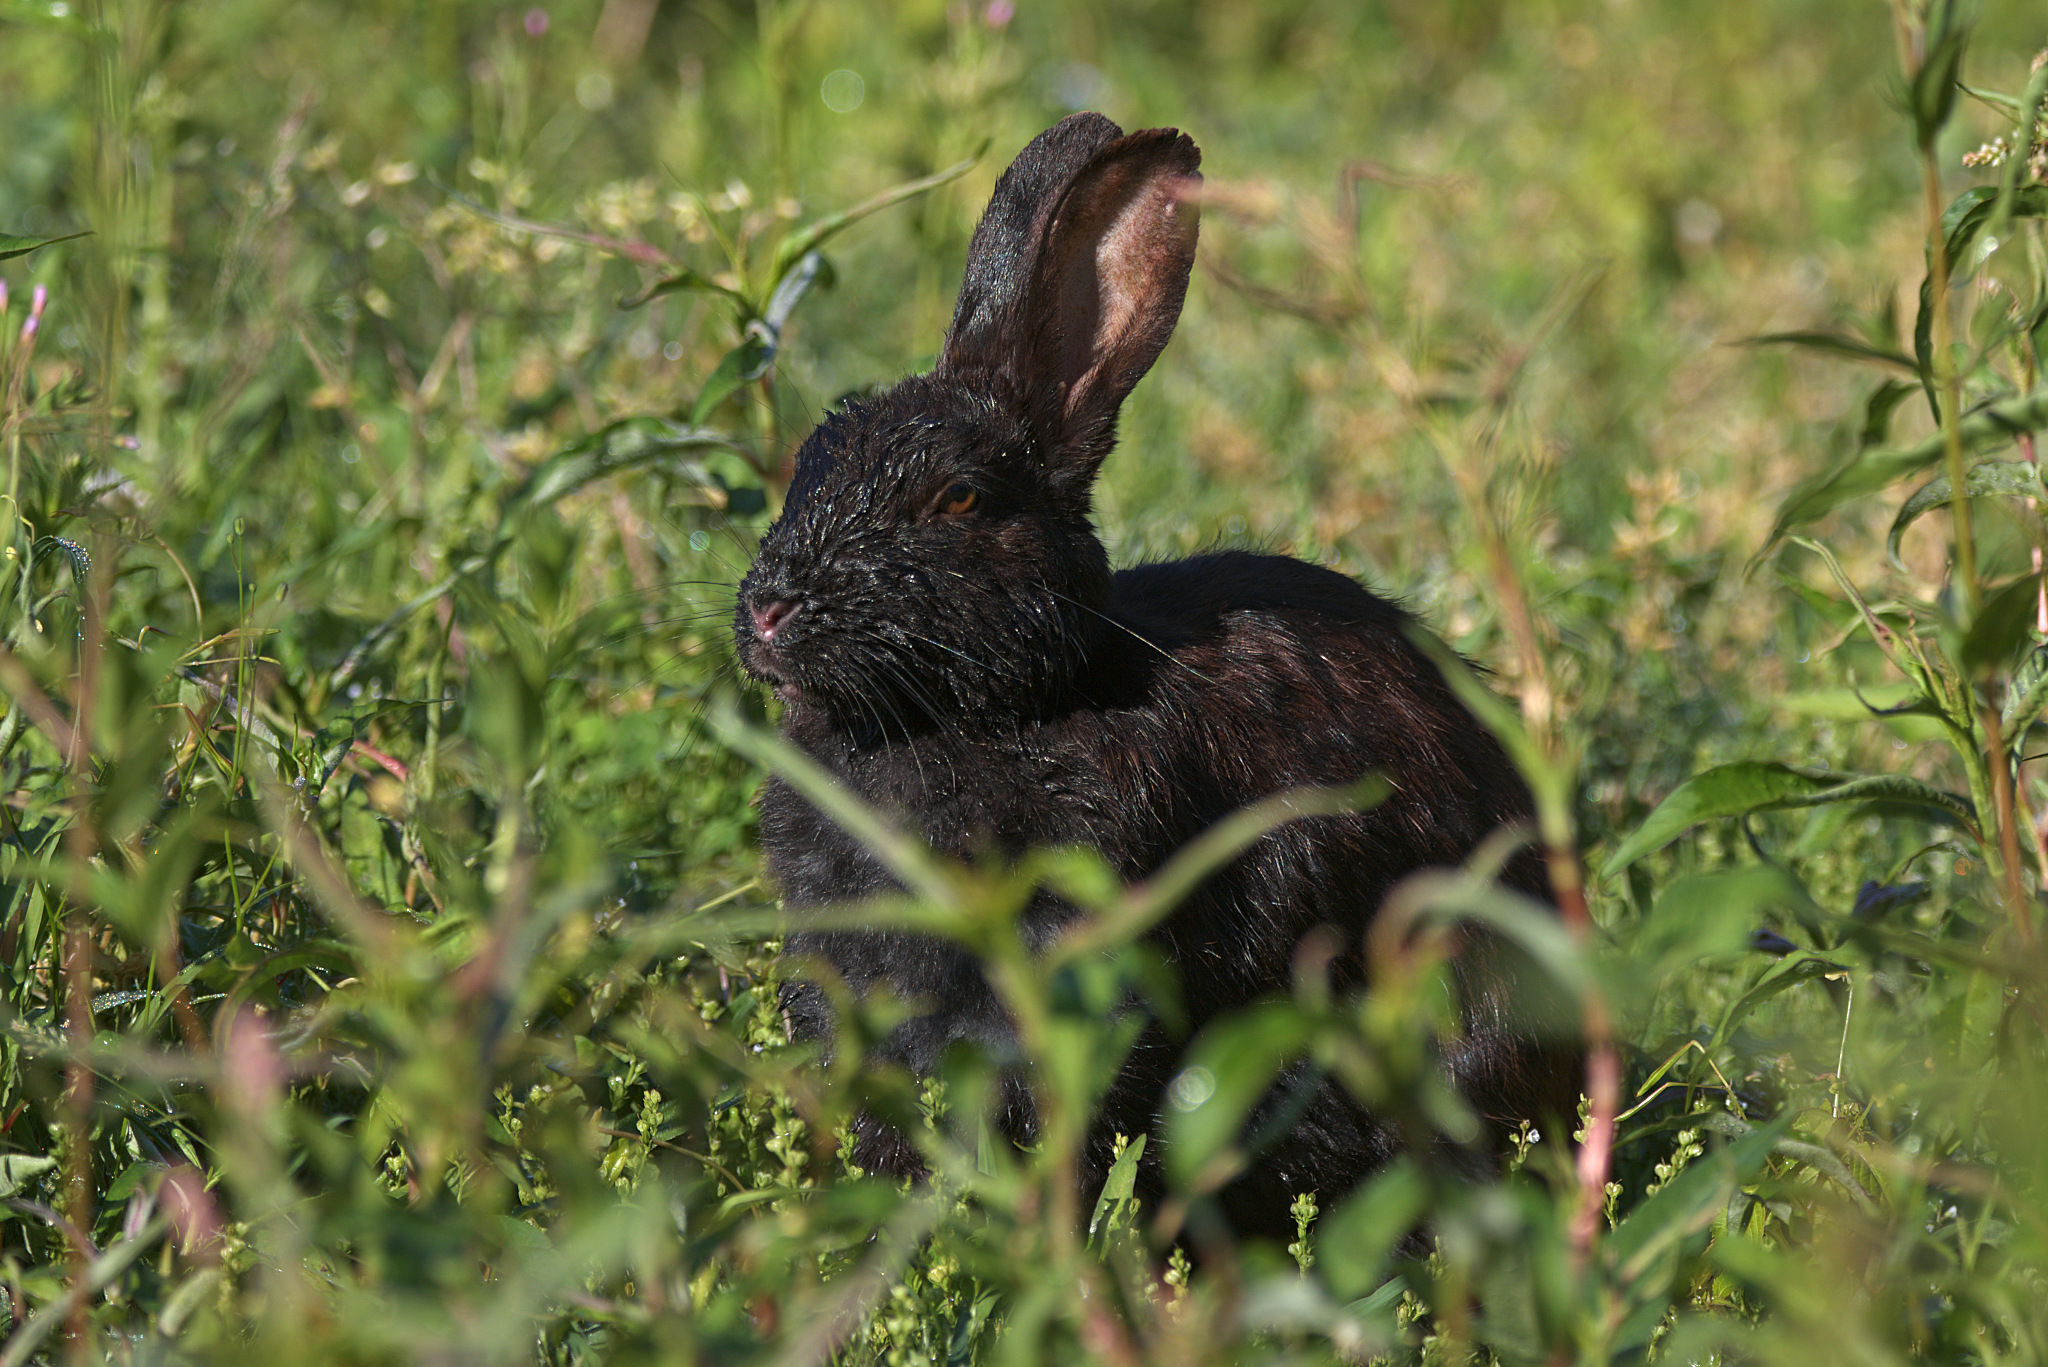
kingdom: Animalia
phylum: Chordata
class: Mammalia
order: Lagomorpha
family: Leporidae
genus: Oryctolagus
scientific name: Oryctolagus cuniculus
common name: European rabbit
